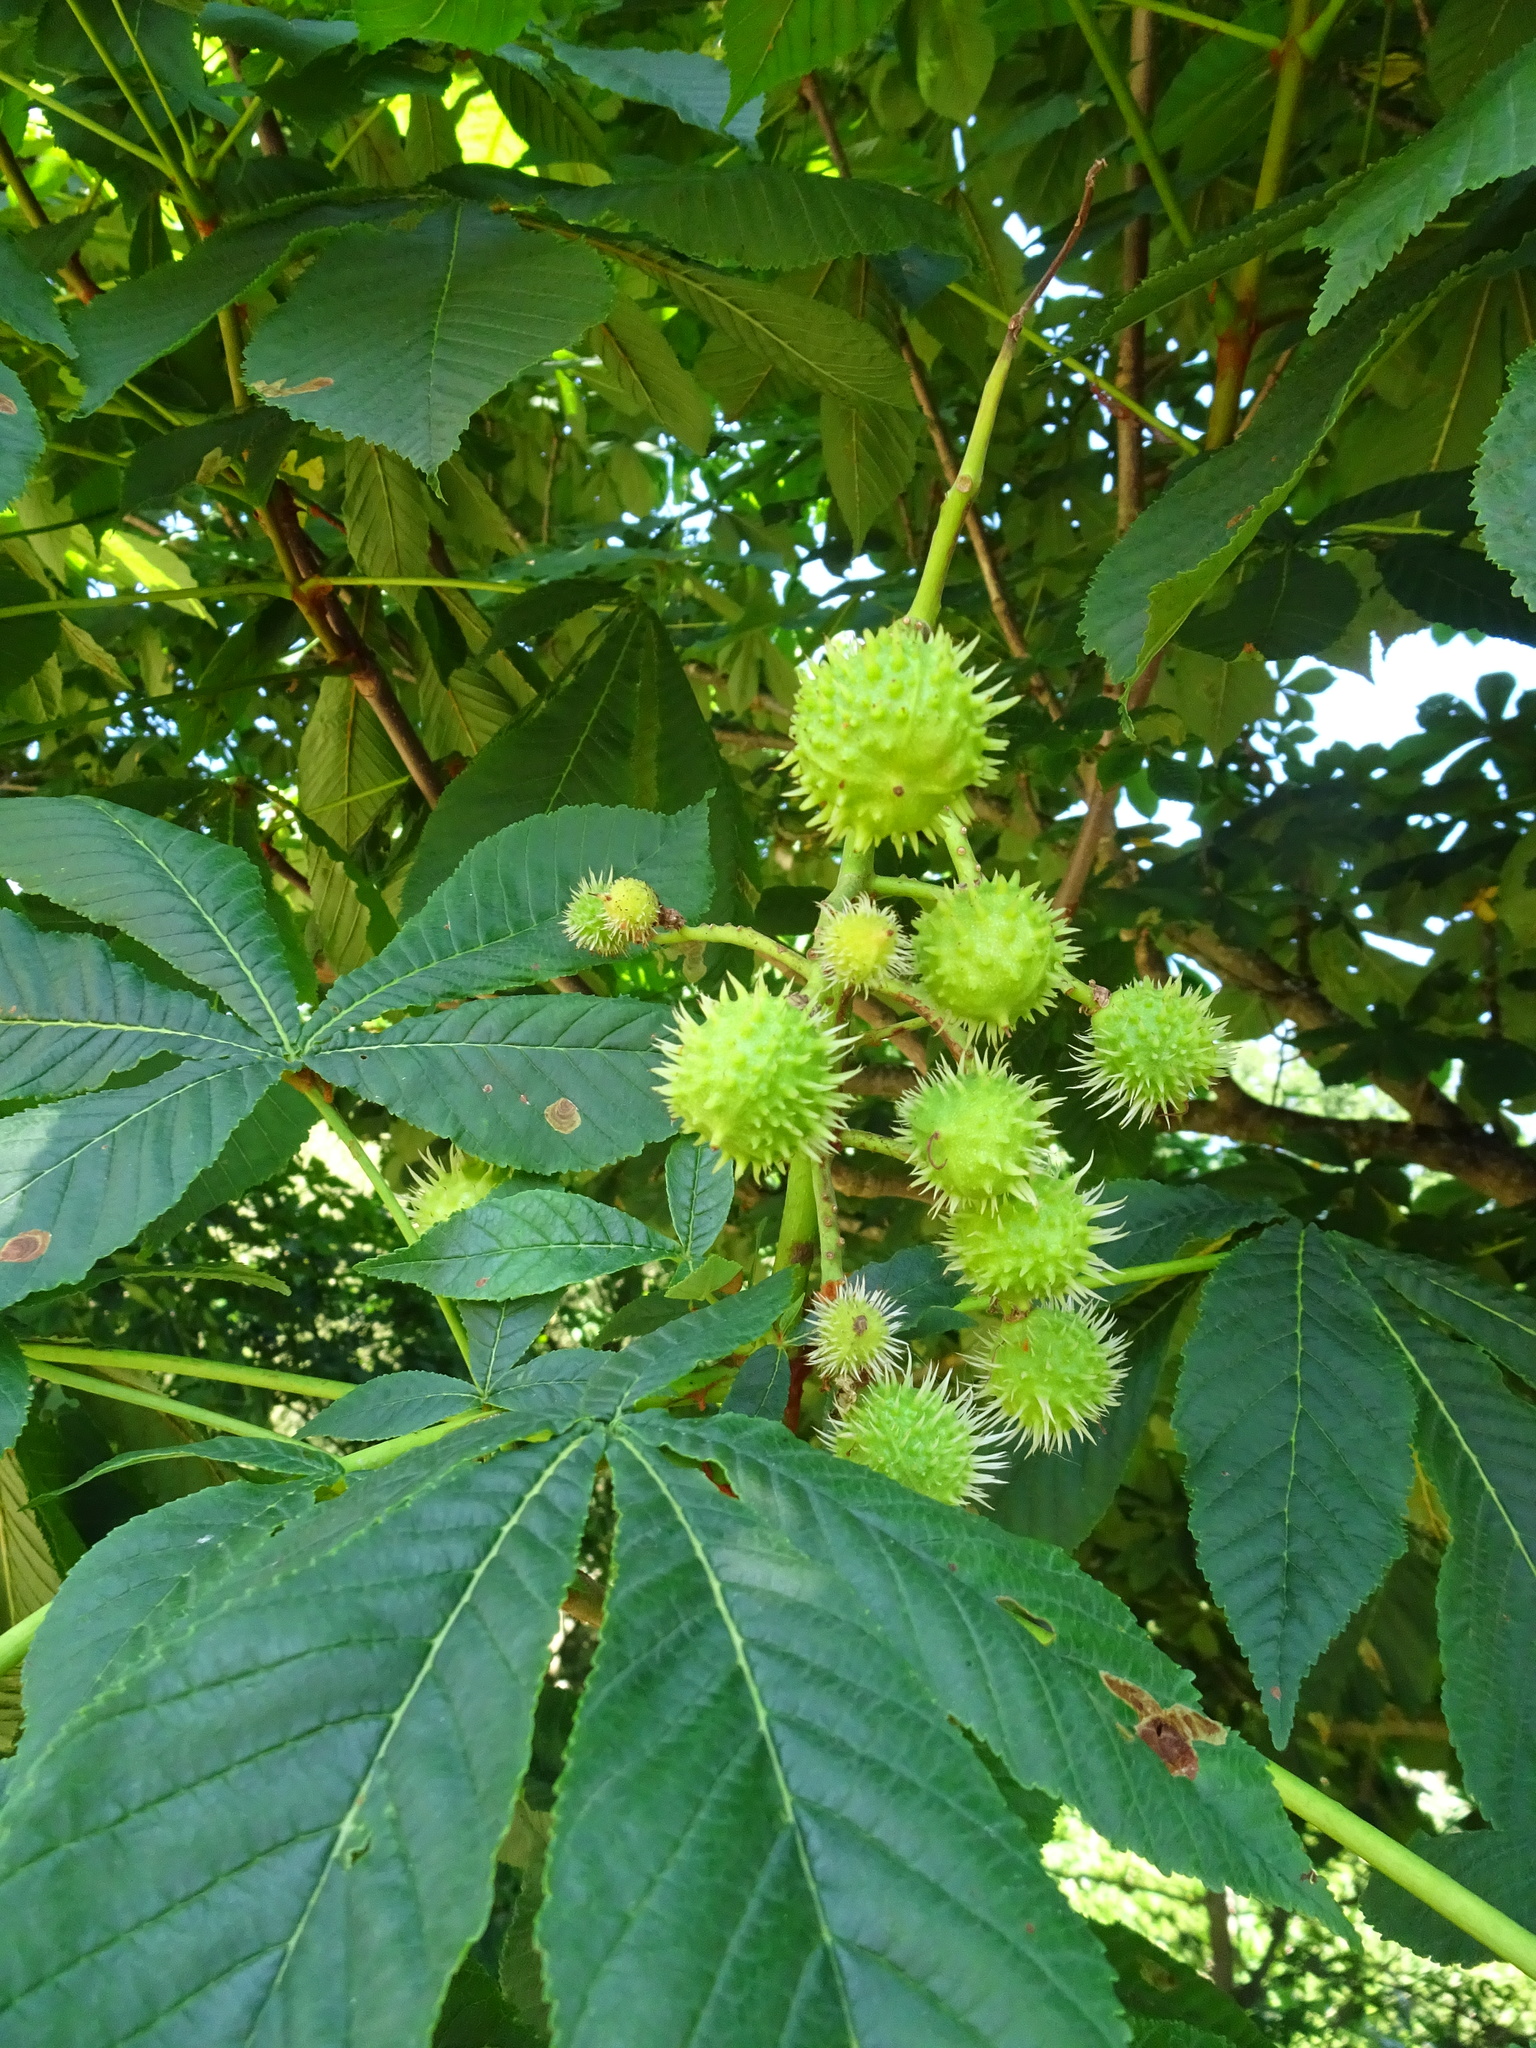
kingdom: Plantae
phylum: Tracheophyta
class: Magnoliopsida
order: Sapindales
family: Sapindaceae
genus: Aesculus
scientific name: Aesculus hippocastanum
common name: Horse-chestnut
